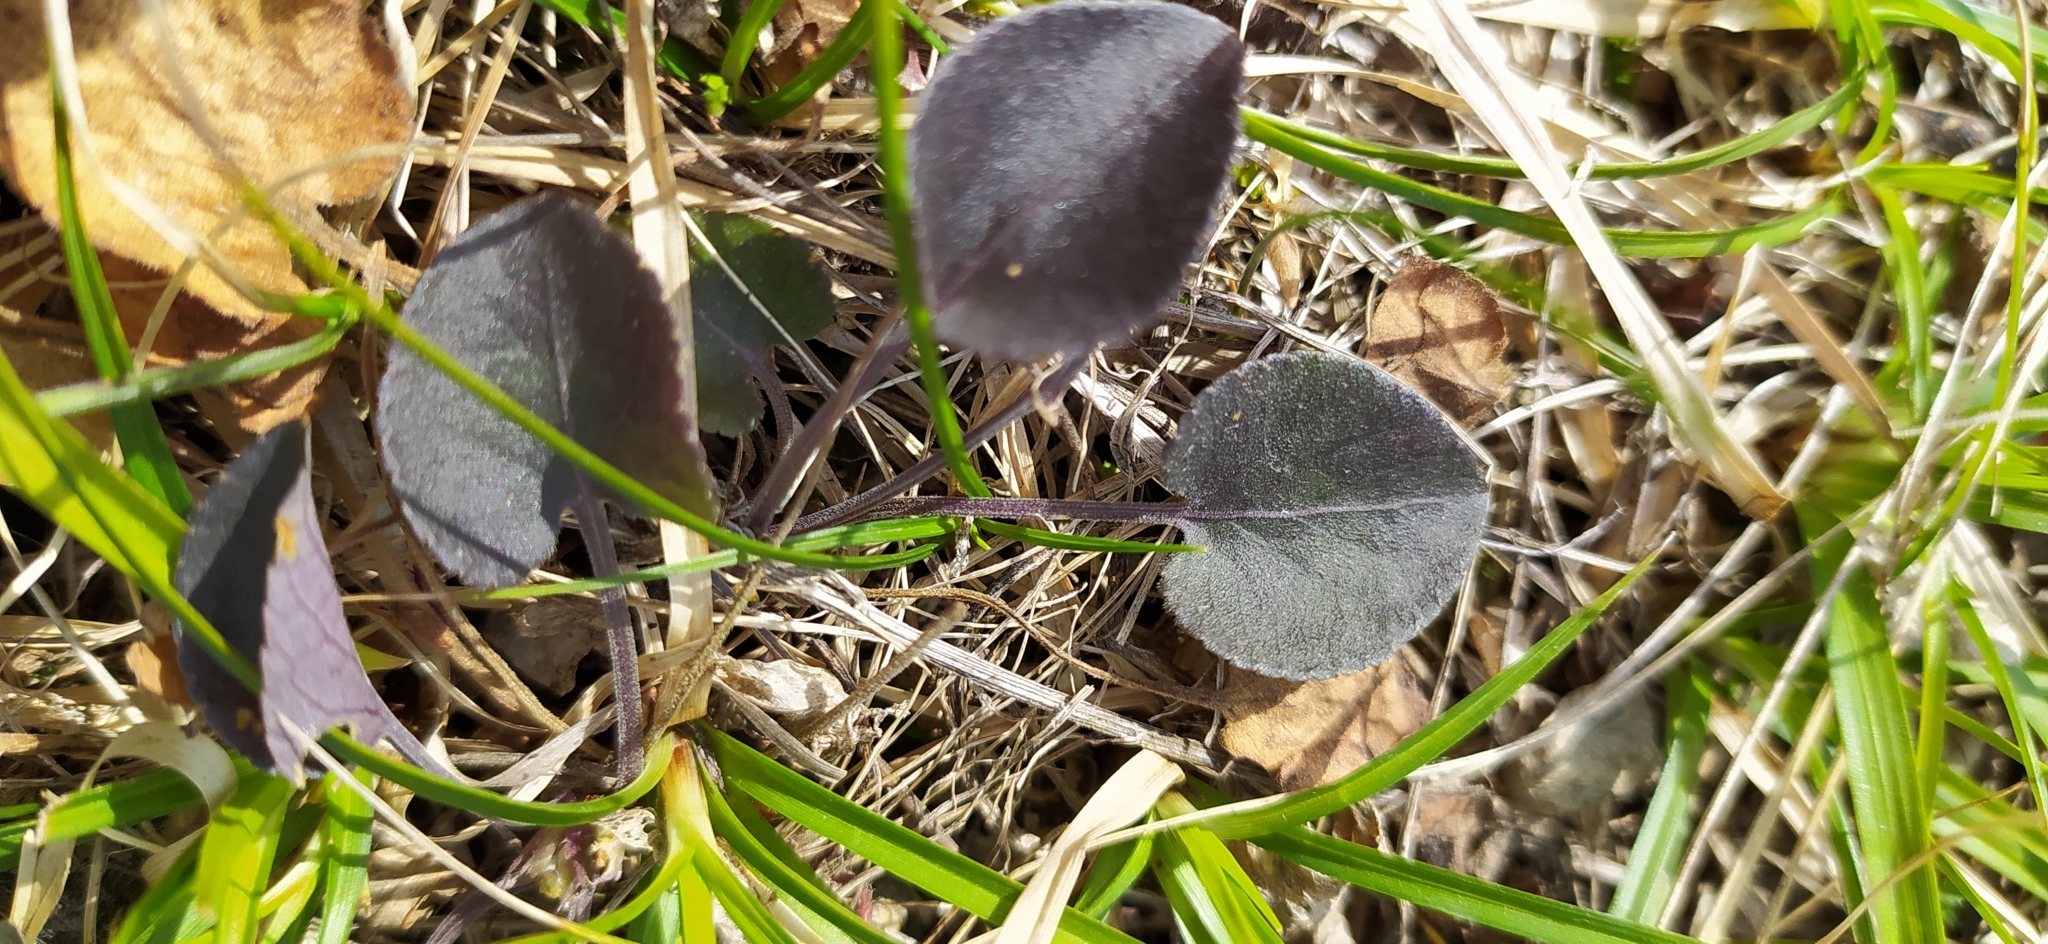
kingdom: Plantae
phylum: Tracheophyta
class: Magnoliopsida
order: Malpighiales
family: Violaceae
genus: Viola
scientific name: Viola rupestris
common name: Teesdale violet
